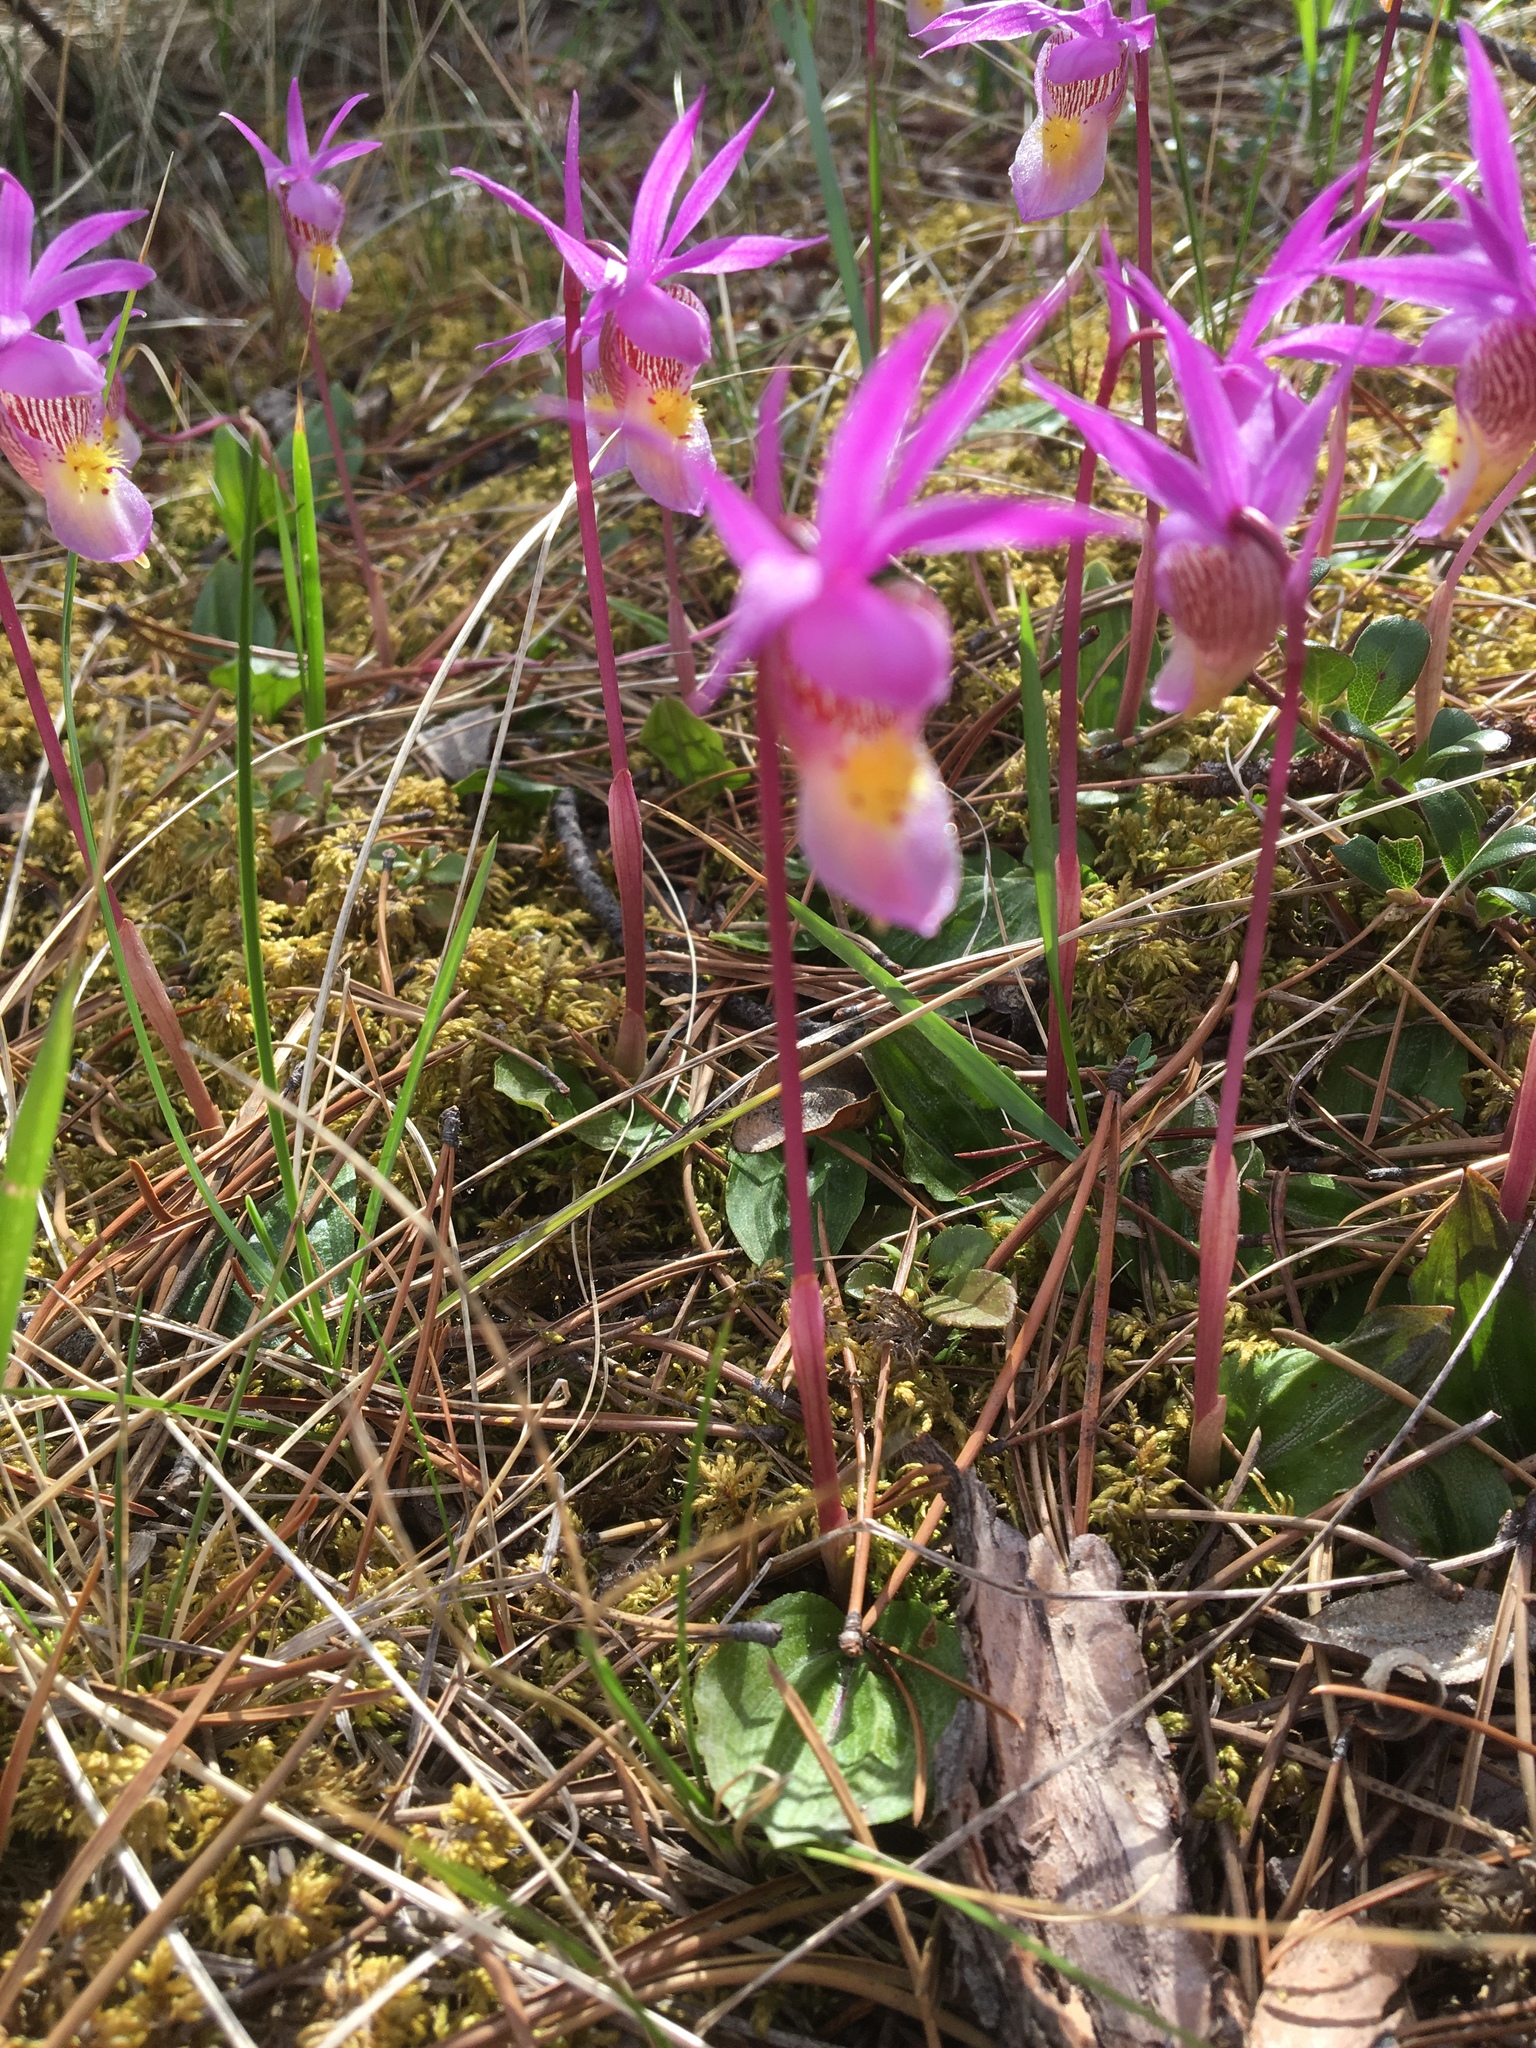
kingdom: Plantae
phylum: Tracheophyta
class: Liliopsida
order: Asparagales
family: Orchidaceae
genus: Calypso
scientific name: Calypso bulbosa
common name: Calypso
